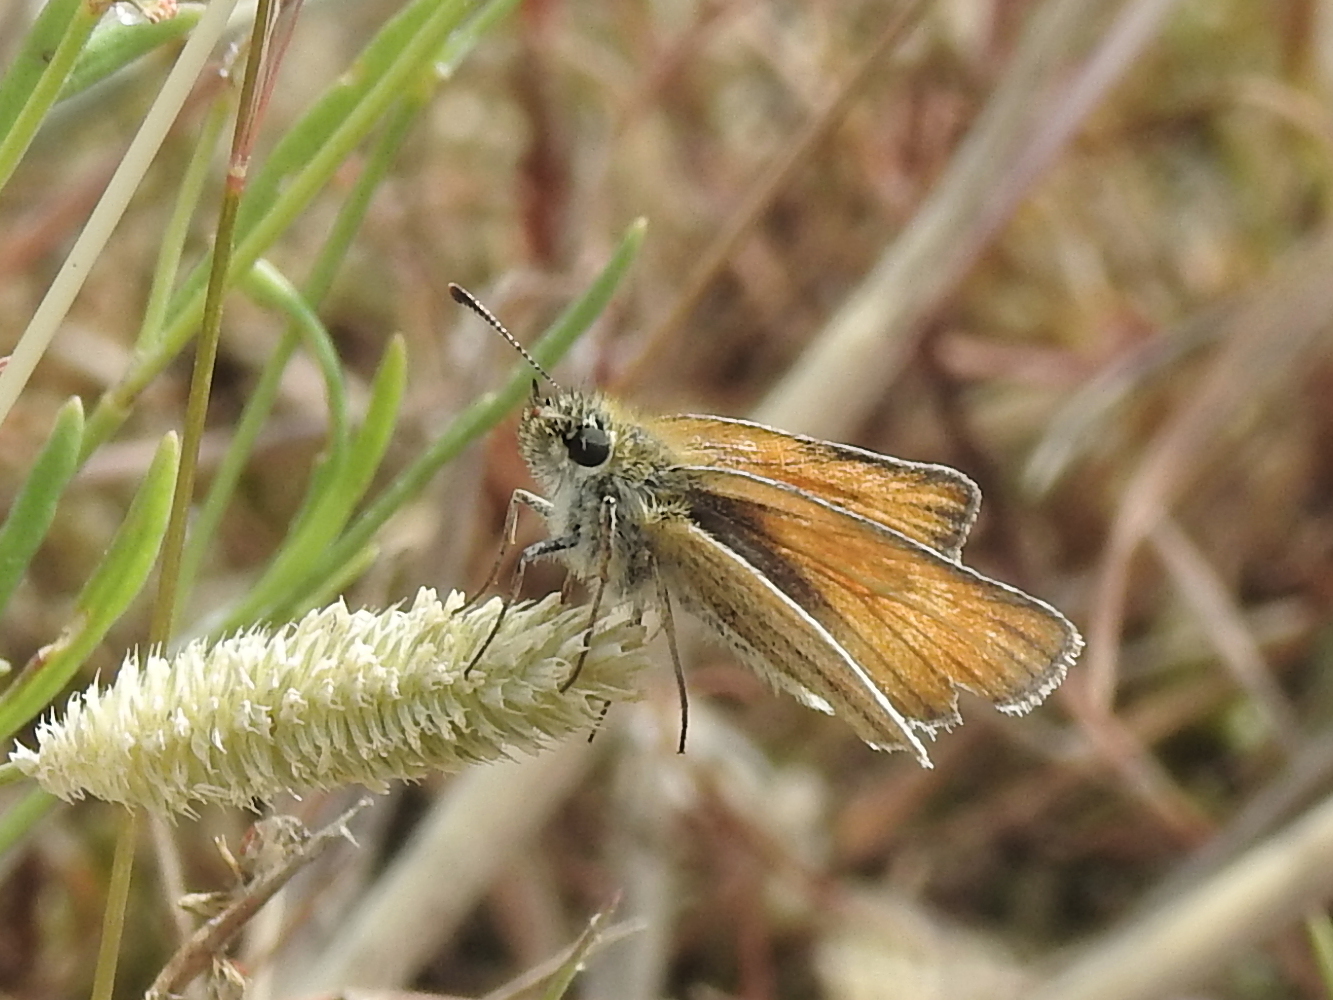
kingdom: Animalia
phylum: Arthropoda
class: Insecta
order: Lepidoptera
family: Hesperiidae
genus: Thymelicus
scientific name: Thymelicus lineola
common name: Essex skipper
